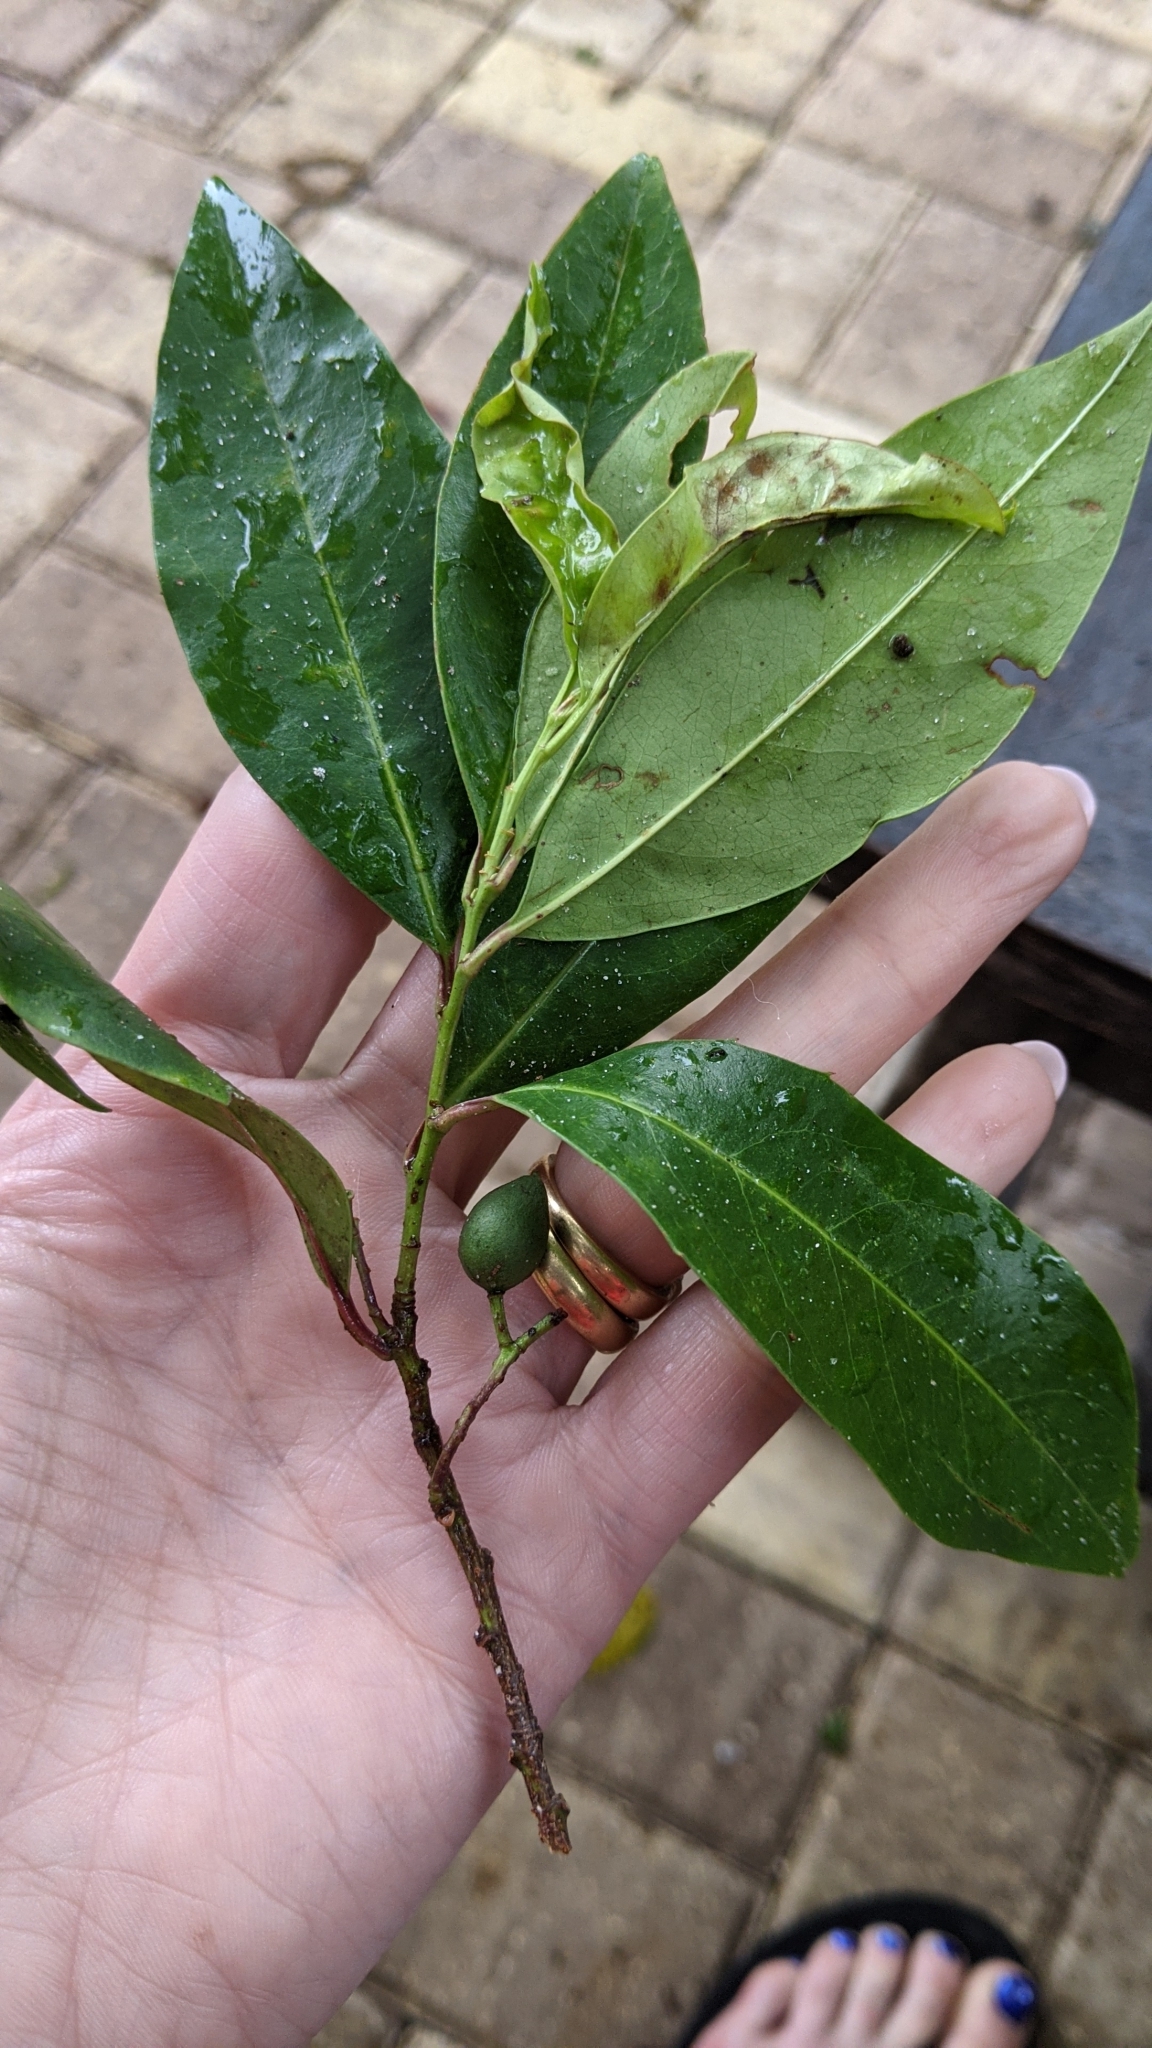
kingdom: Plantae
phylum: Tracheophyta
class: Magnoliopsida
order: Rosales
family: Rosaceae
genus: Prunus
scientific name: Prunus caroliniana
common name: Carolina laurel cherry
